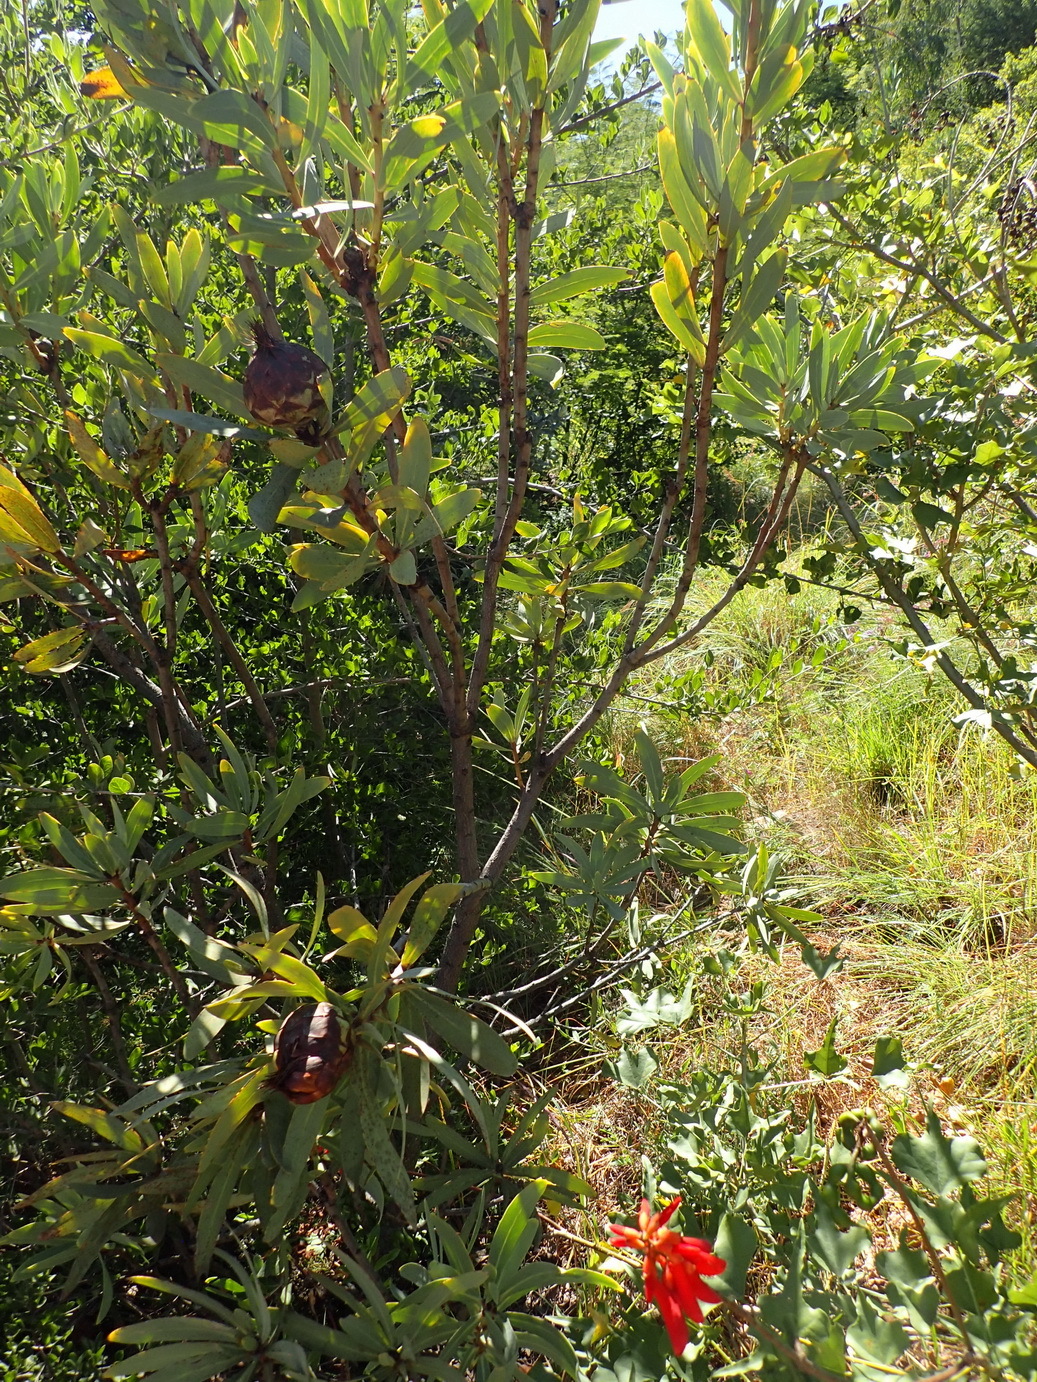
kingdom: Plantae
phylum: Tracheophyta
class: Magnoliopsida
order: Proteales
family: Proteaceae
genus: Protea
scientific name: Protea caffra
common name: Common sugarbush
